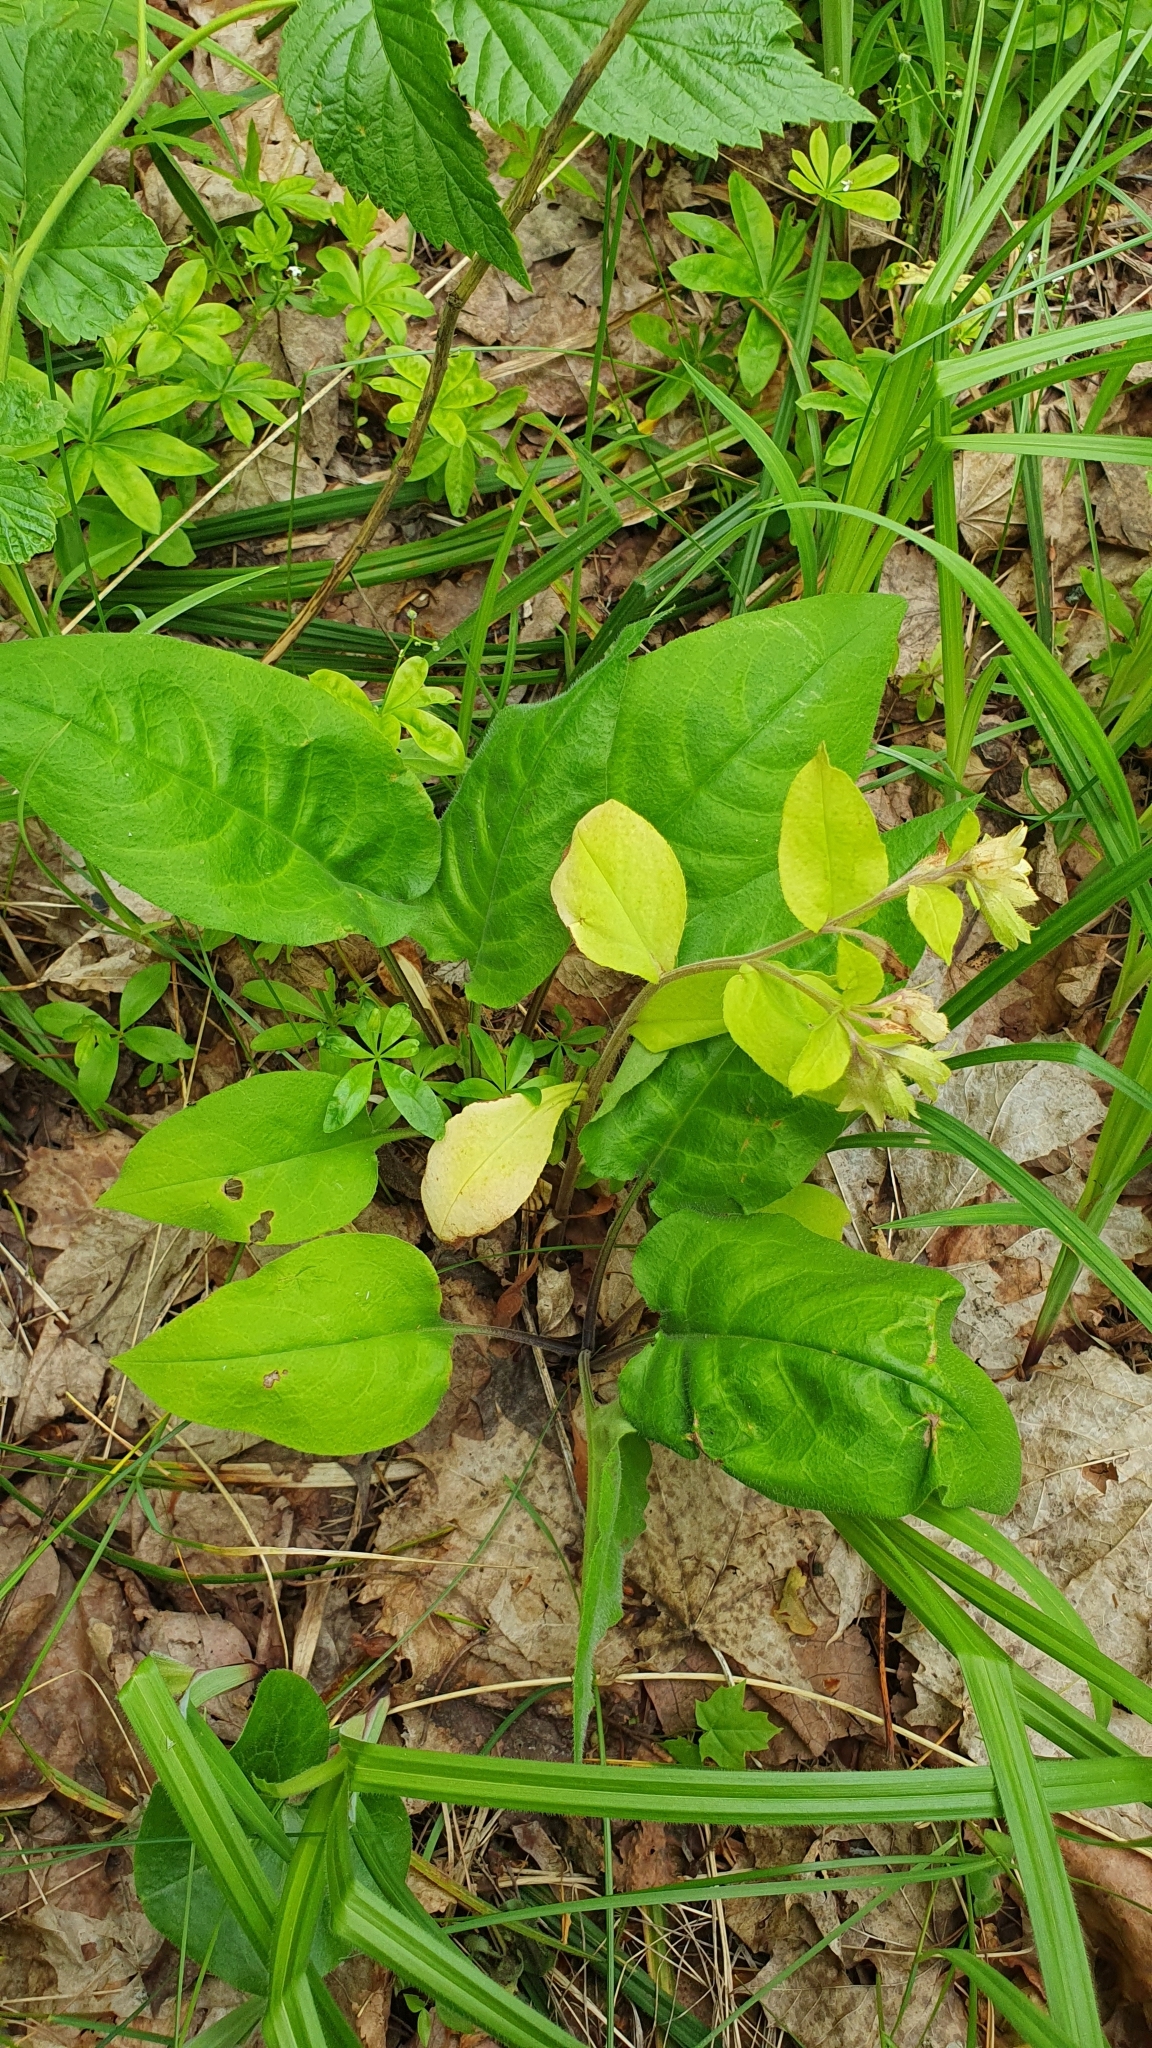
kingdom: Plantae
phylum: Tracheophyta
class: Magnoliopsida
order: Boraginales
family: Boraginaceae
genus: Pulmonaria
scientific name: Pulmonaria obscura
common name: Suffolk lungwort
